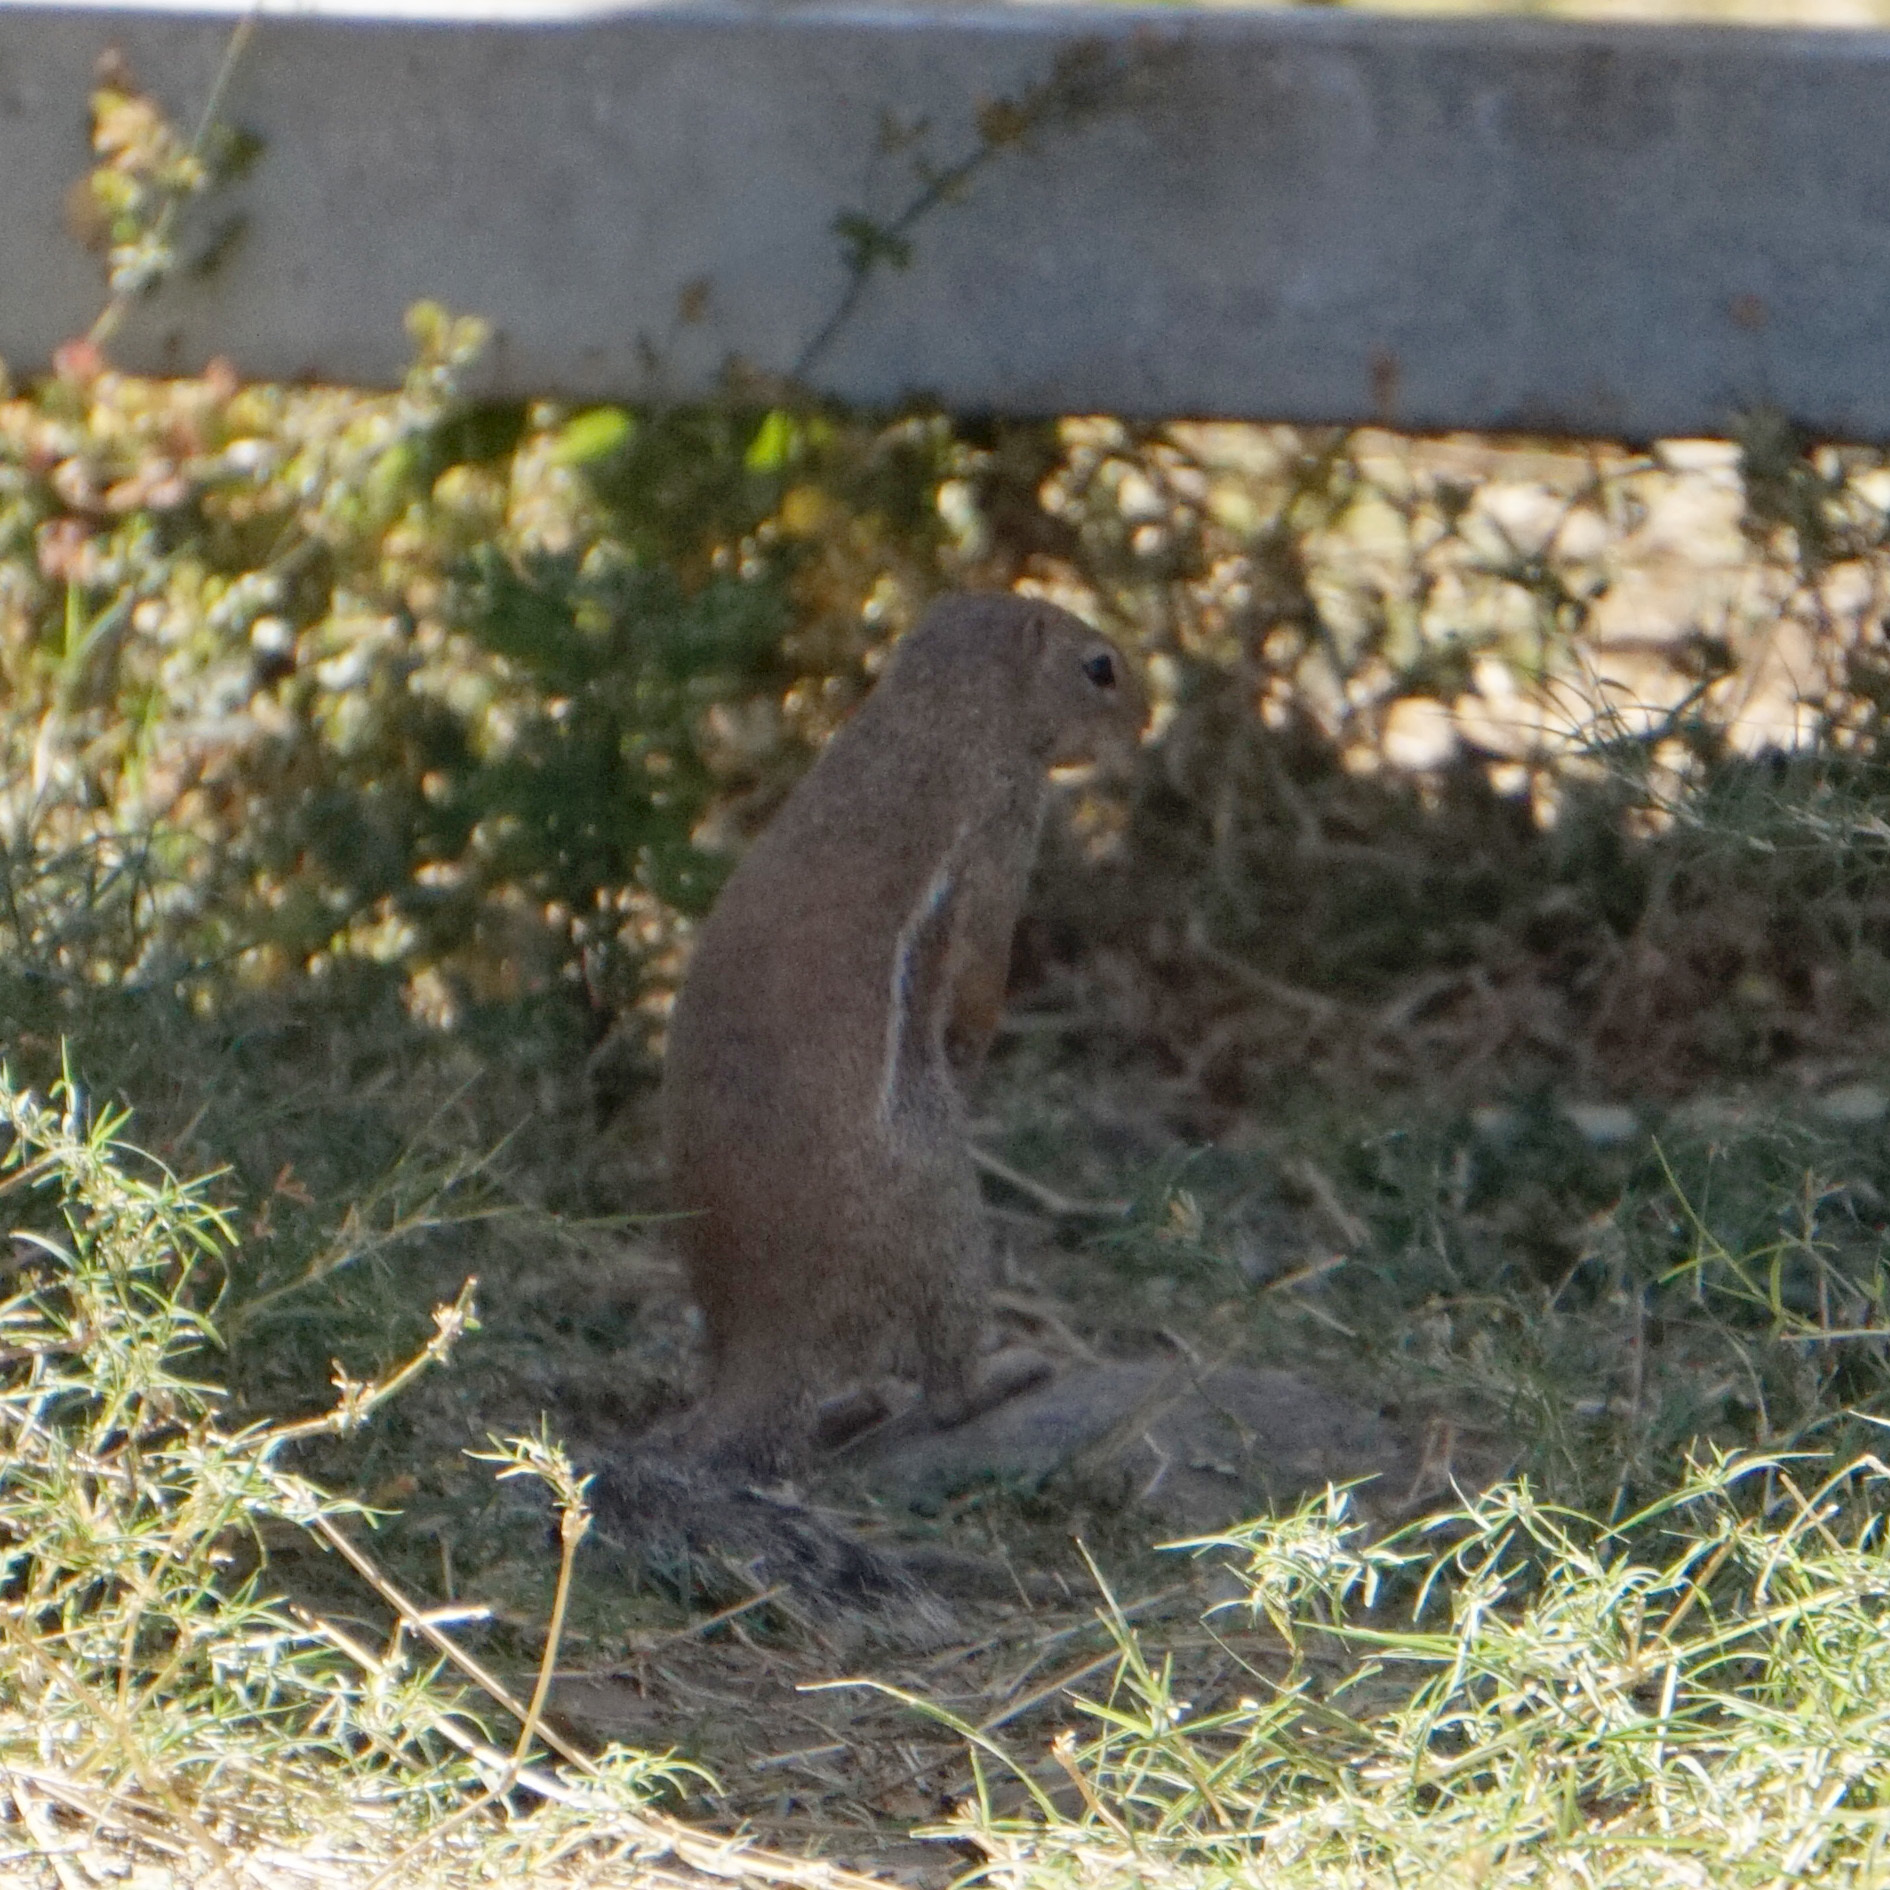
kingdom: Animalia
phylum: Chordata
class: Mammalia
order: Rodentia
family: Sciuridae
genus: Xerus
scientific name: Xerus erythropus
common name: Striped ground squirrel
